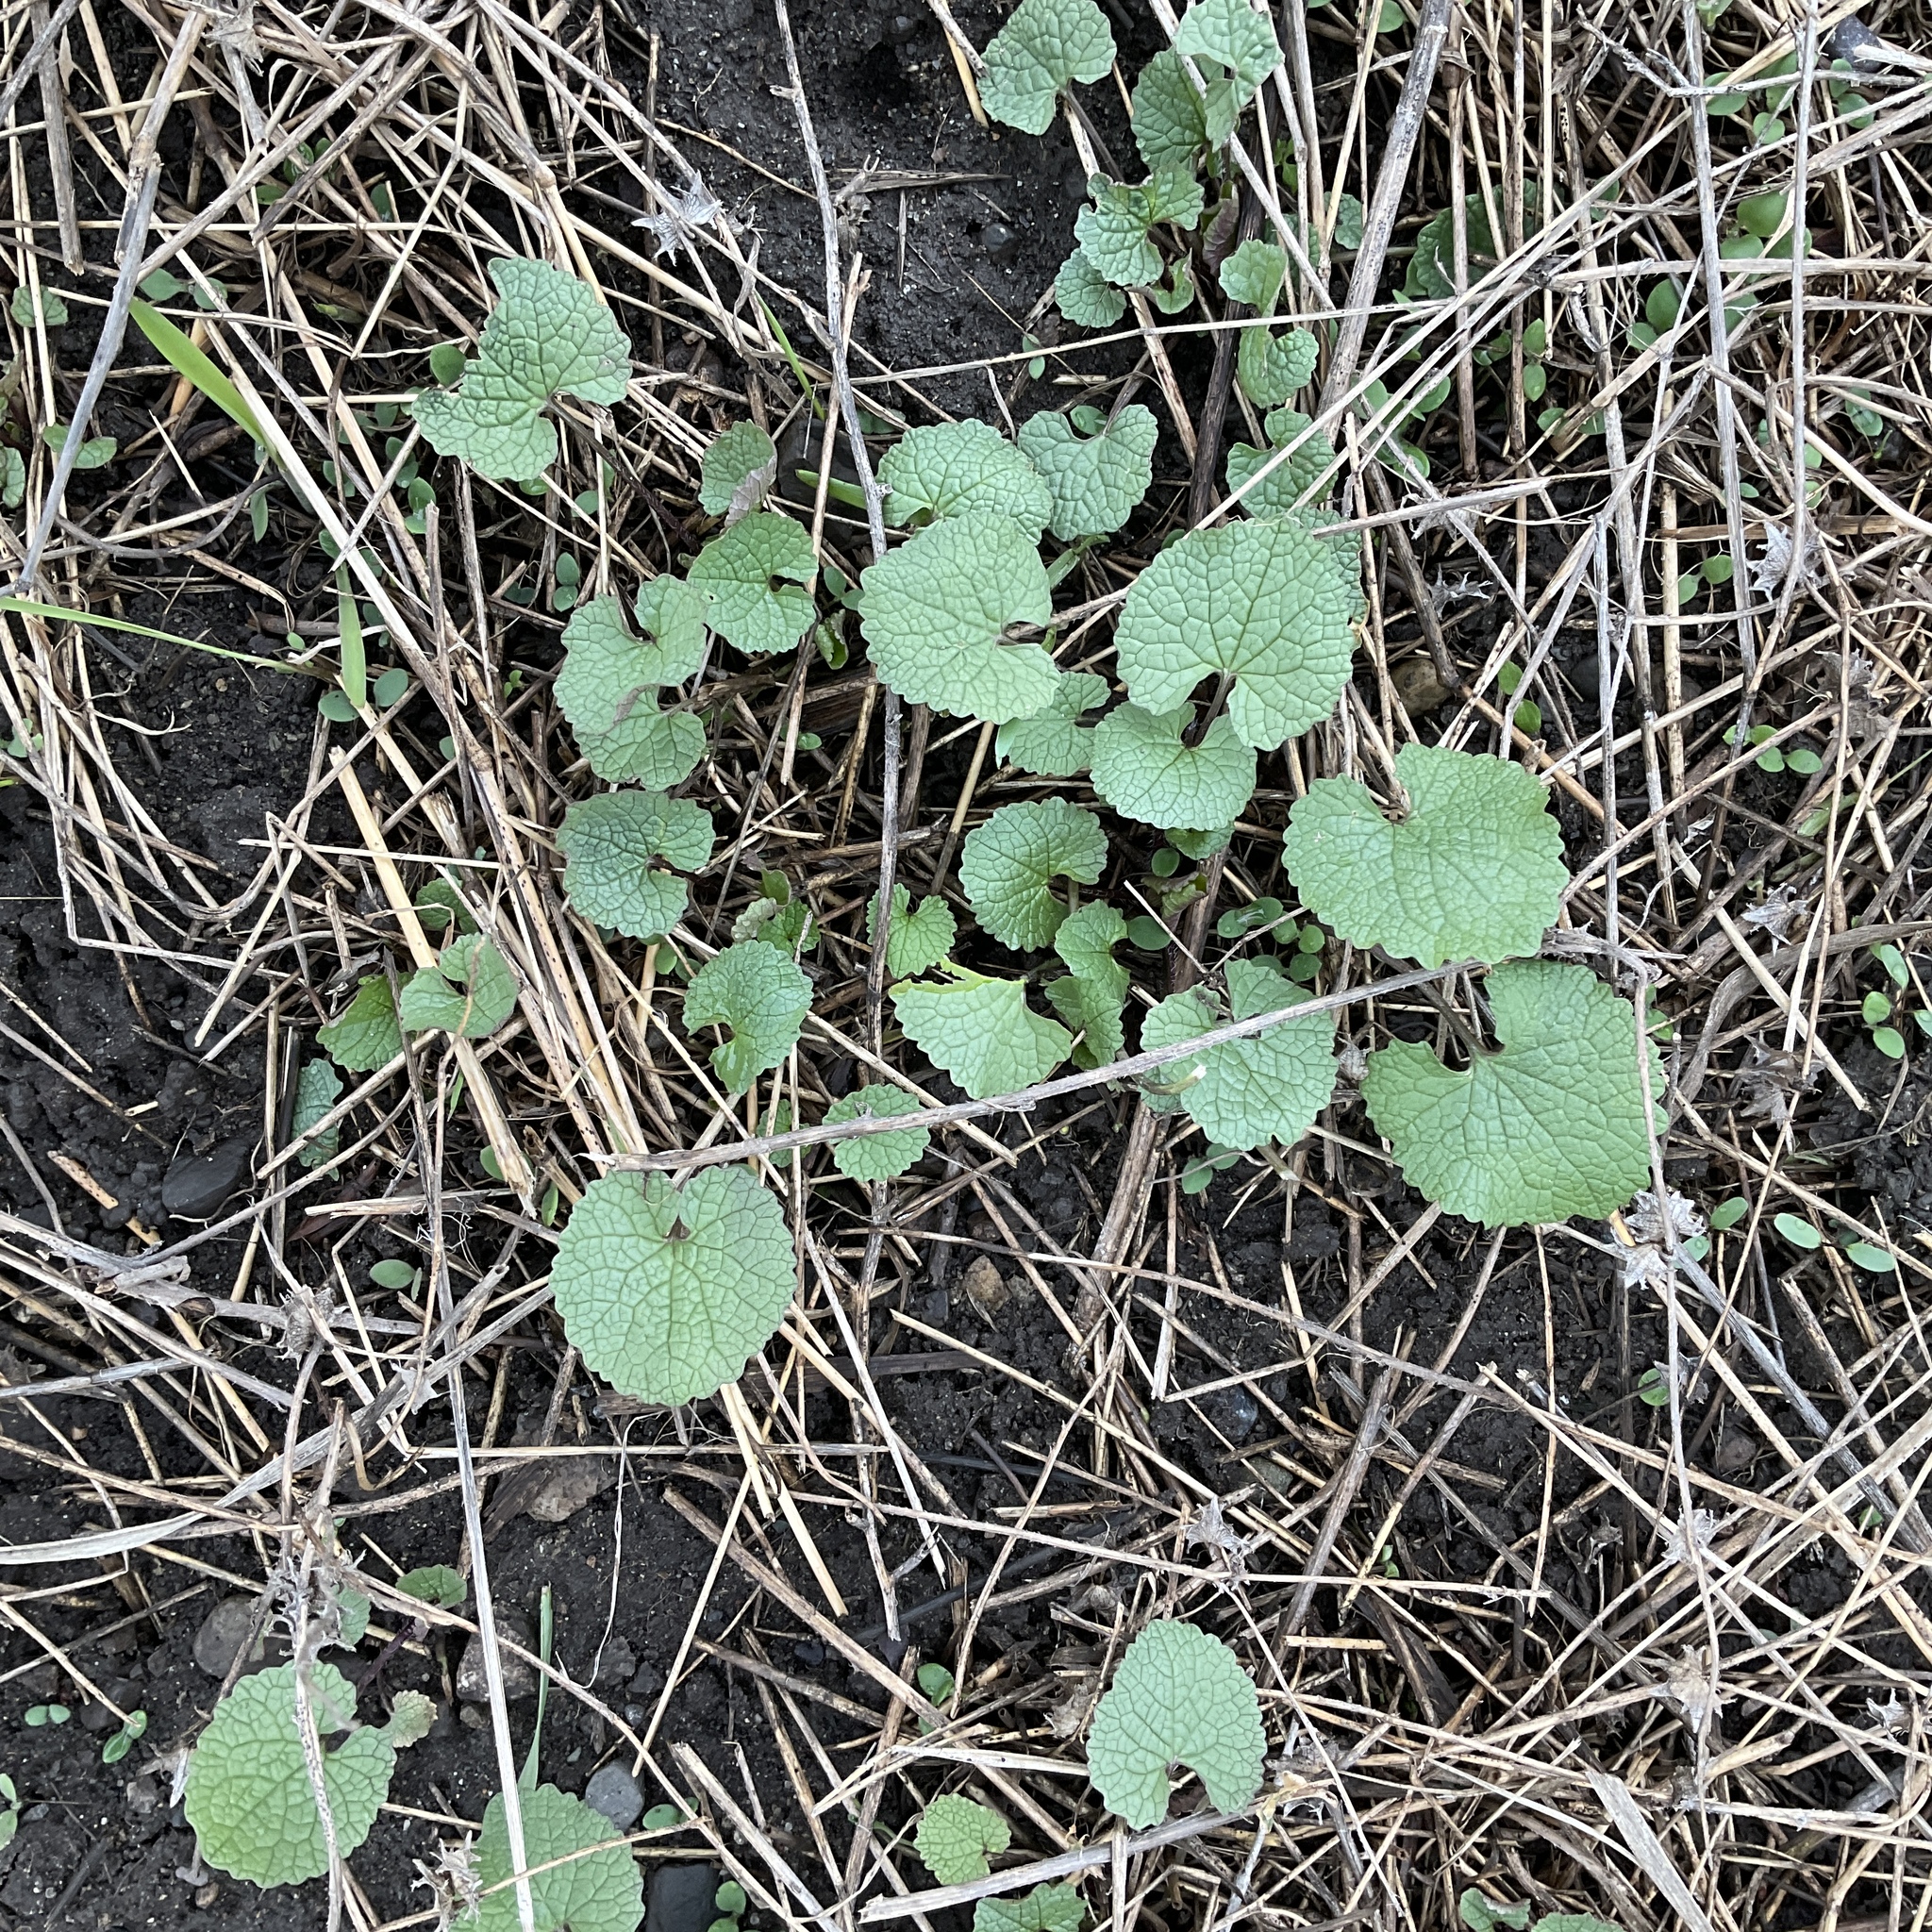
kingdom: Plantae
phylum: Tracheophyta
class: Magnoliopsida
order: Brassicales
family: Brassicaceae
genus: Alliaria
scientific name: Alliaria petiolata
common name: Garlic mustard
